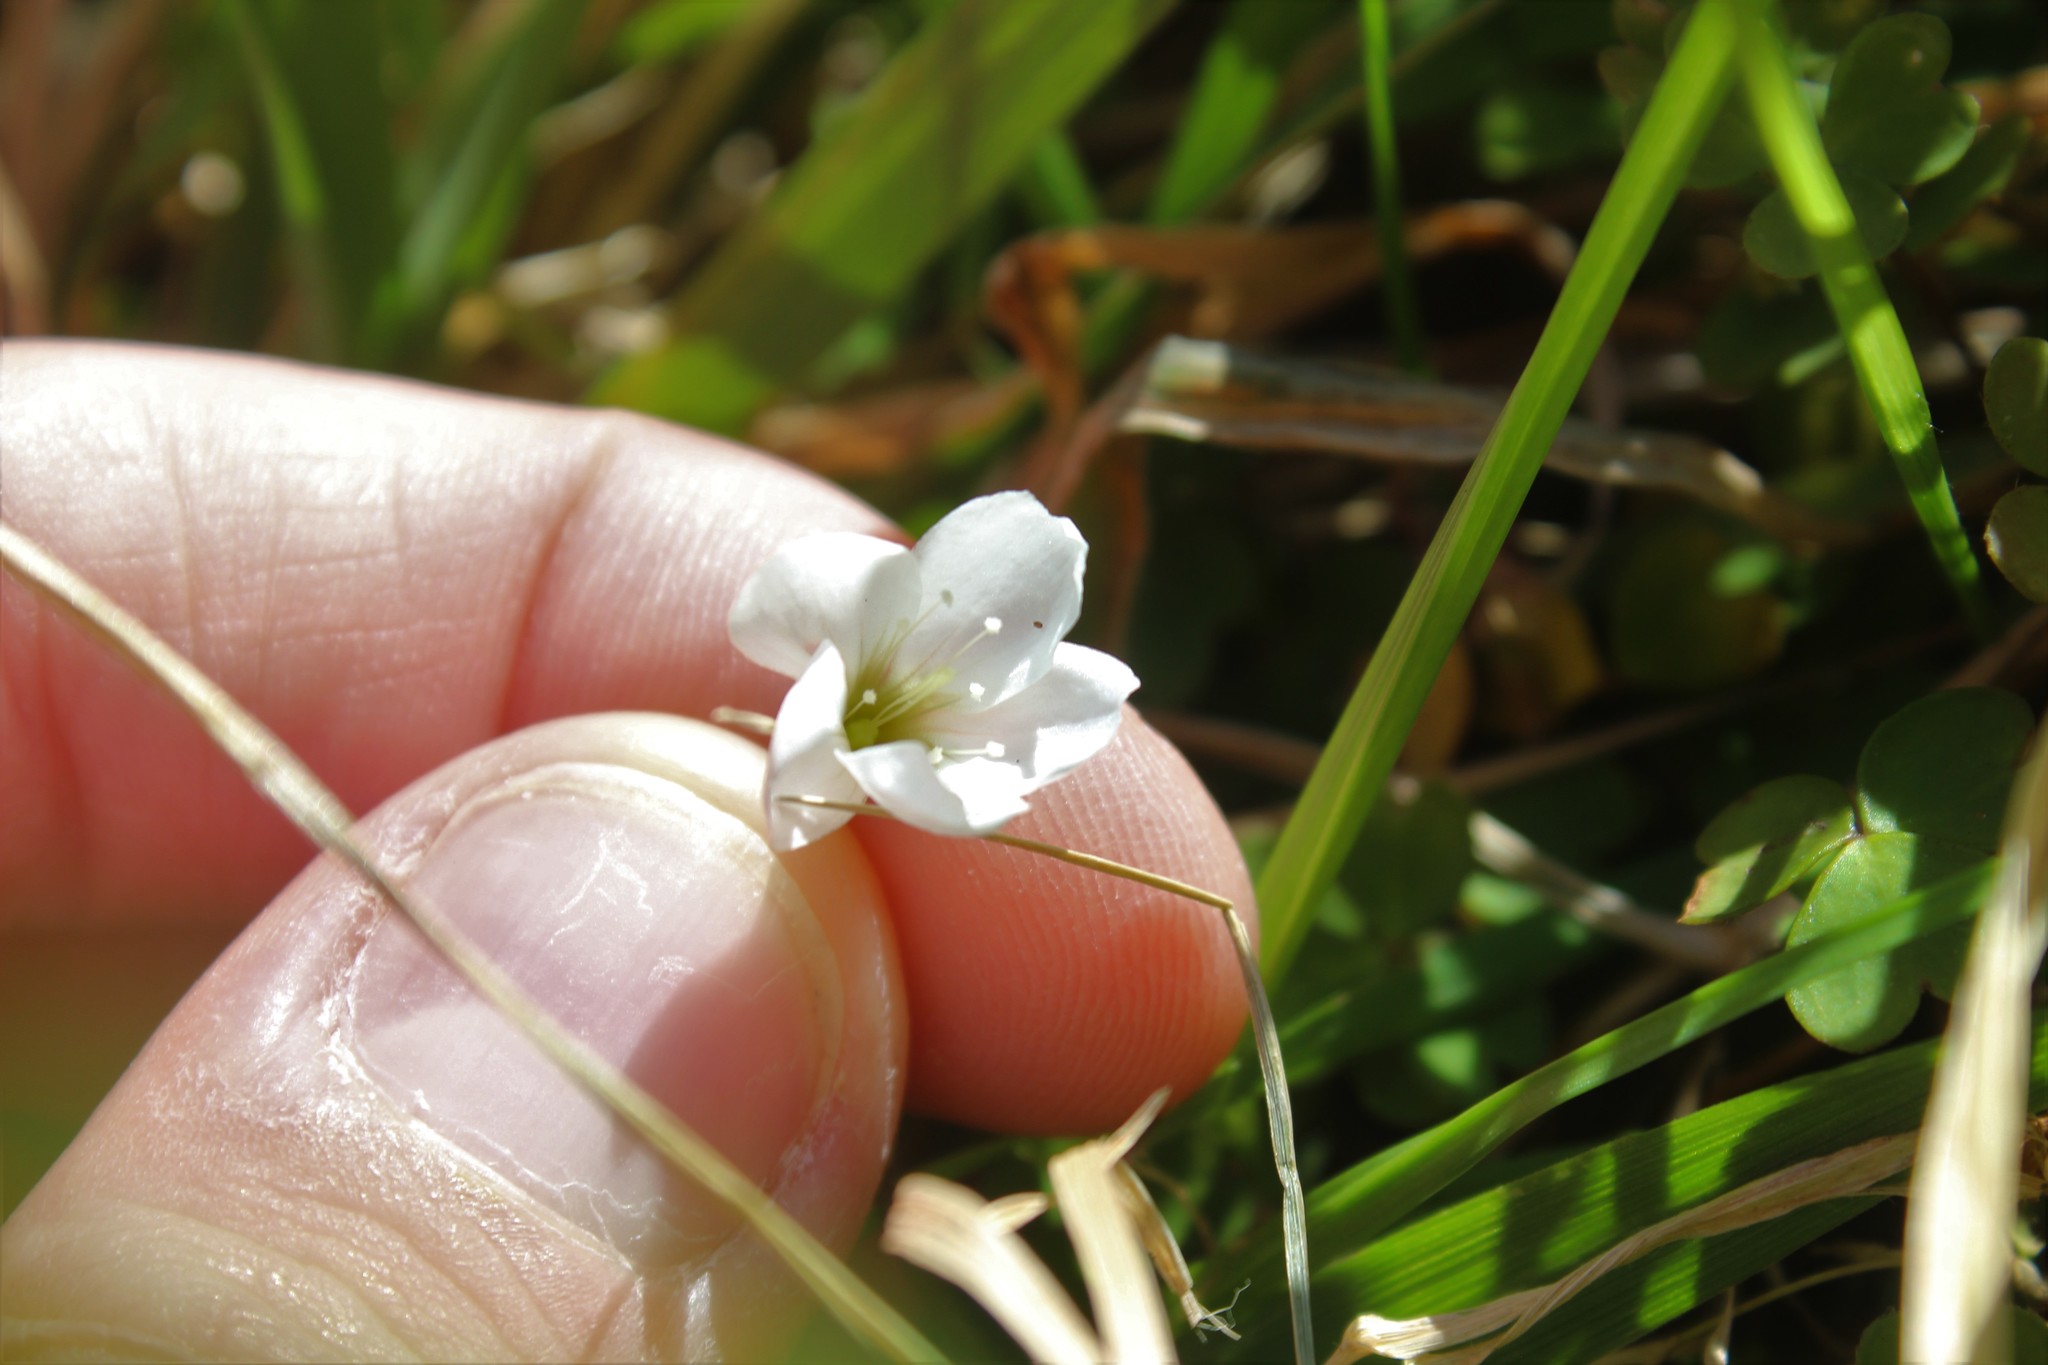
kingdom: Plantae
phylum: Tracheophyta
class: Magnoliopsida
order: Oxalidales
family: Oxalidaceae
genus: Oxalis
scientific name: Oxalis magellanica
